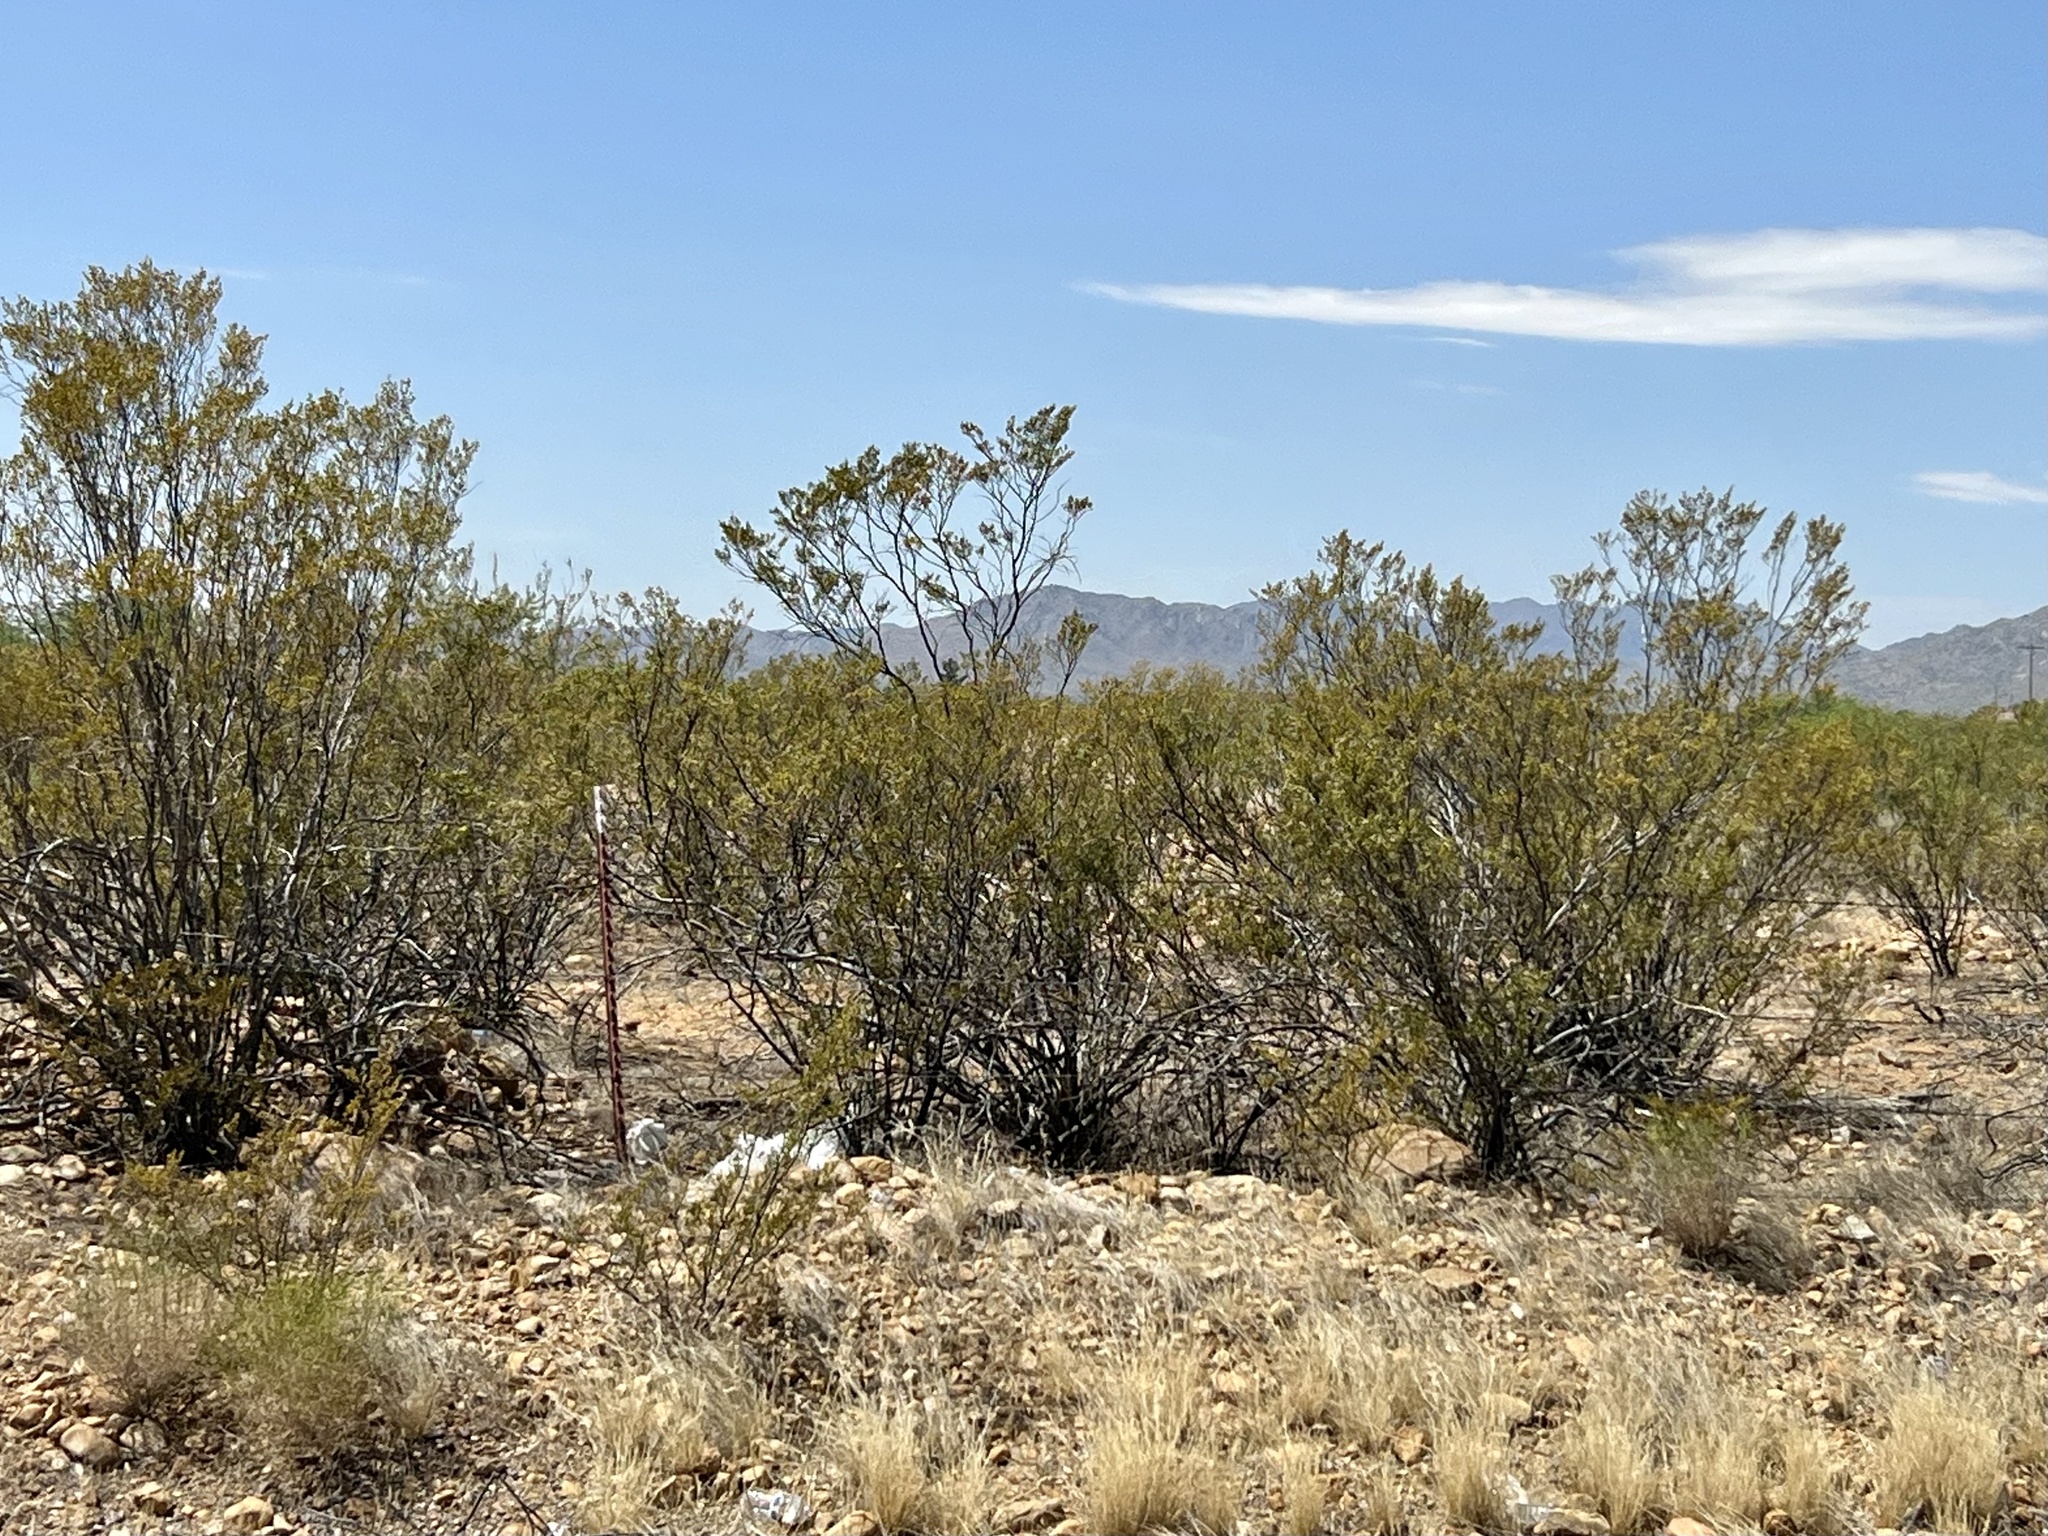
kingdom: Plantae
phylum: Tracheophyta
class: Magnoliopsida
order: Zygophyllales
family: Zygophyllaceae
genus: Larrea
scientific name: Larrea tridentata
